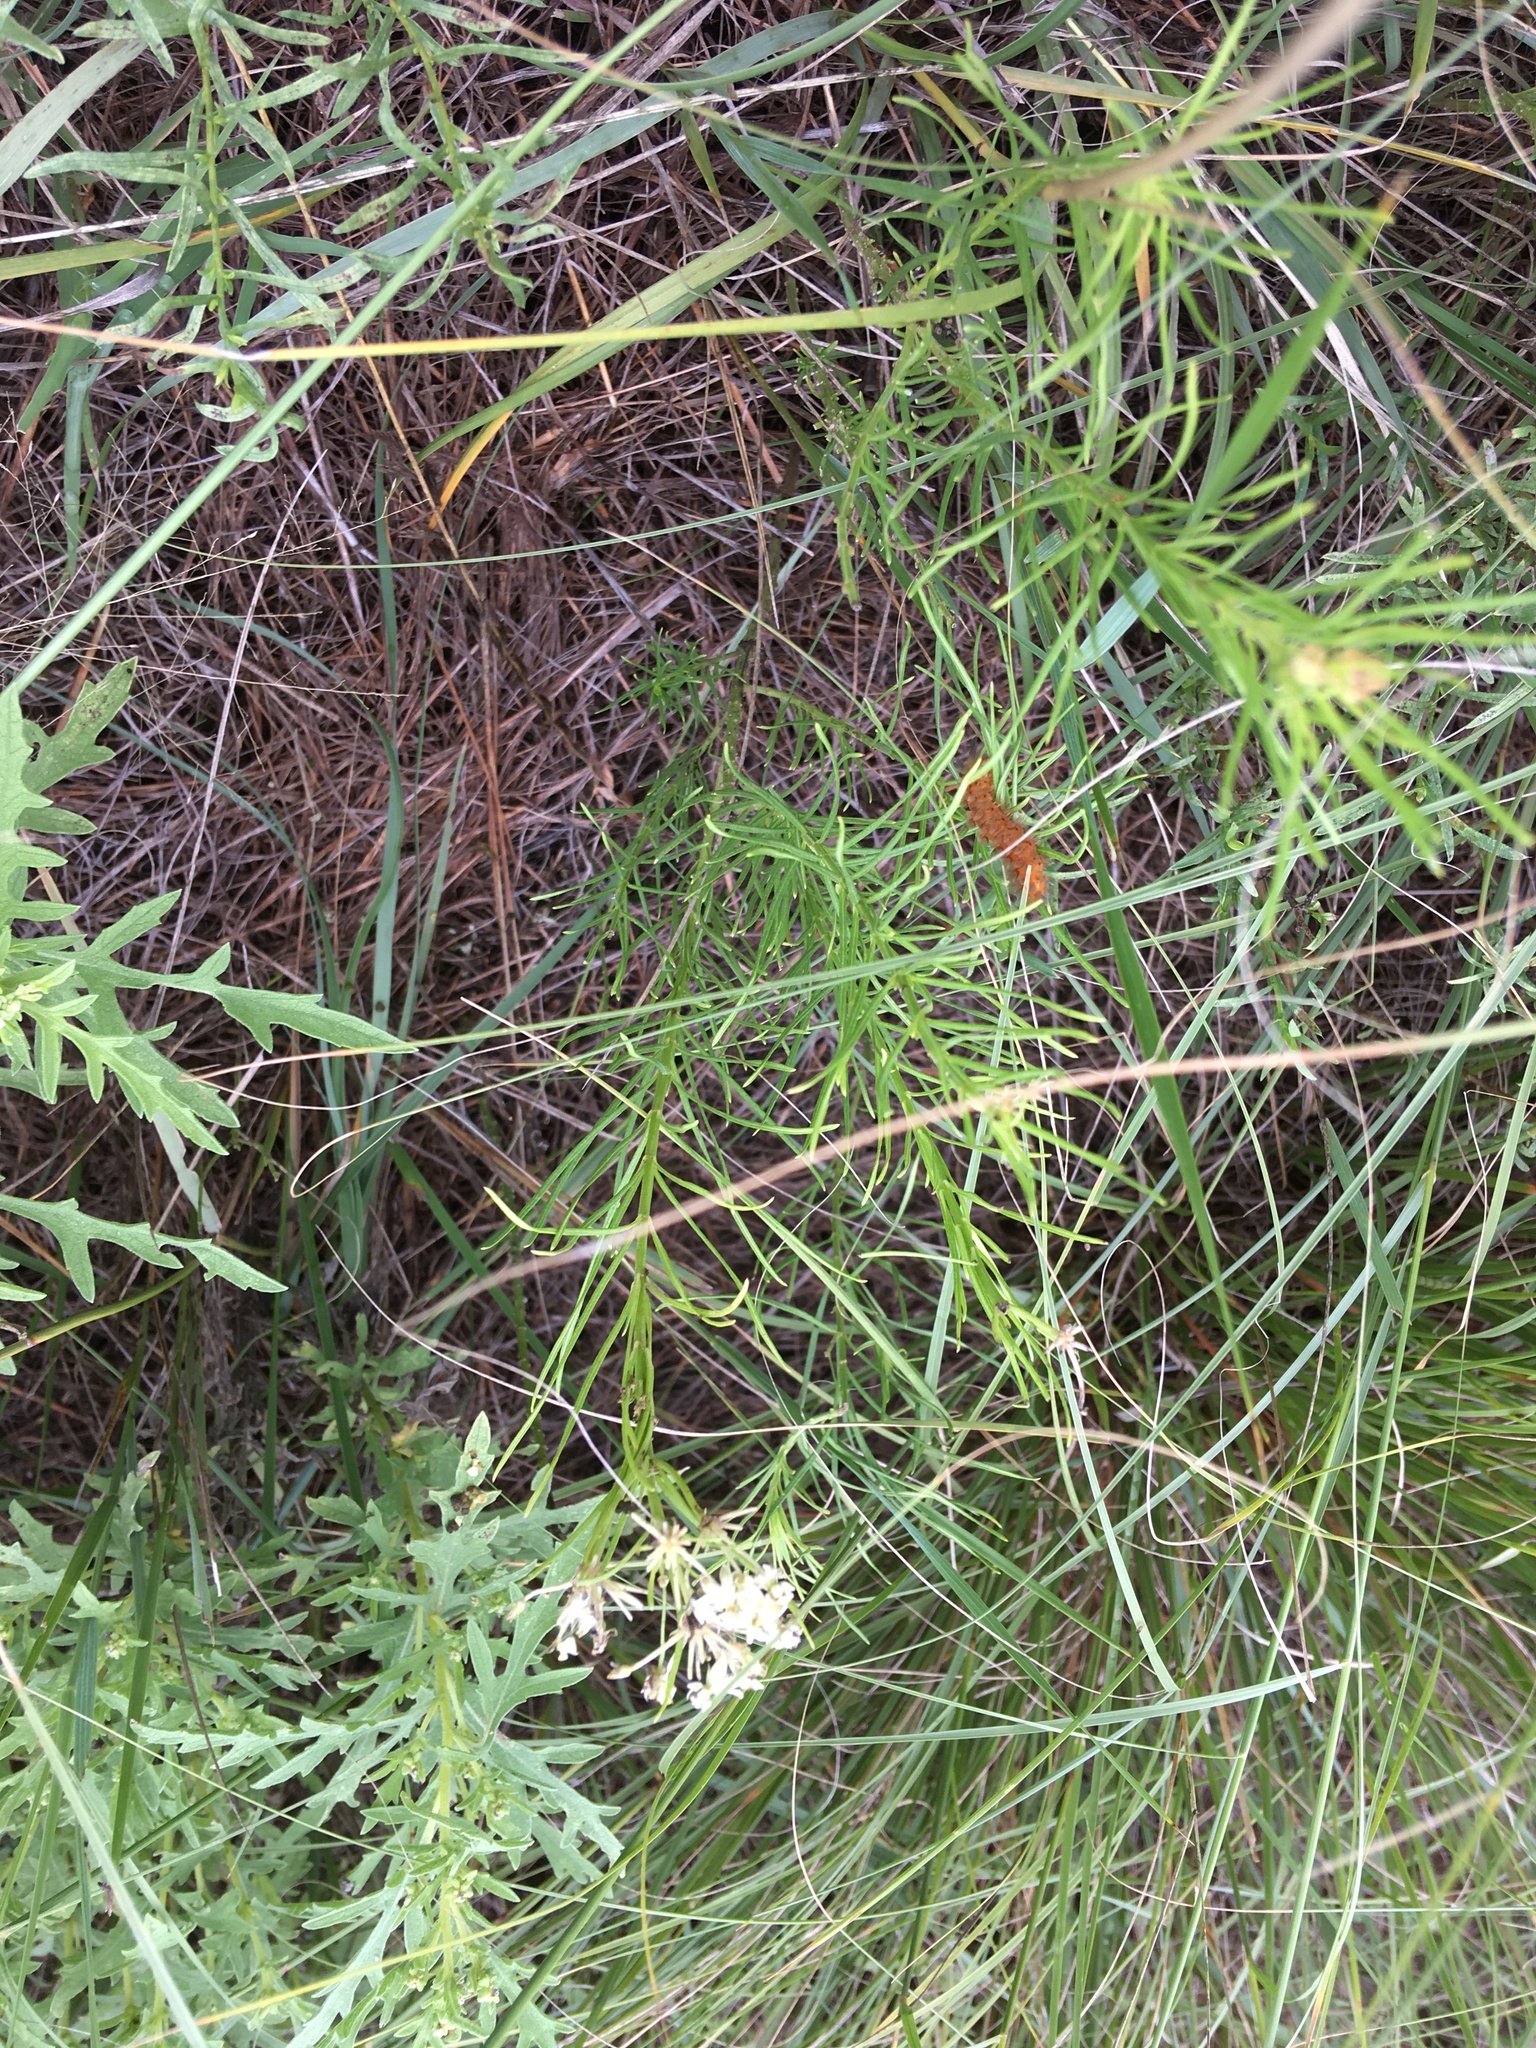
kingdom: Animalia
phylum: Arthropoda
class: Insecta
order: Lepidoptera
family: Erebidae
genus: Cycnia
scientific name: Cycnia collaris
